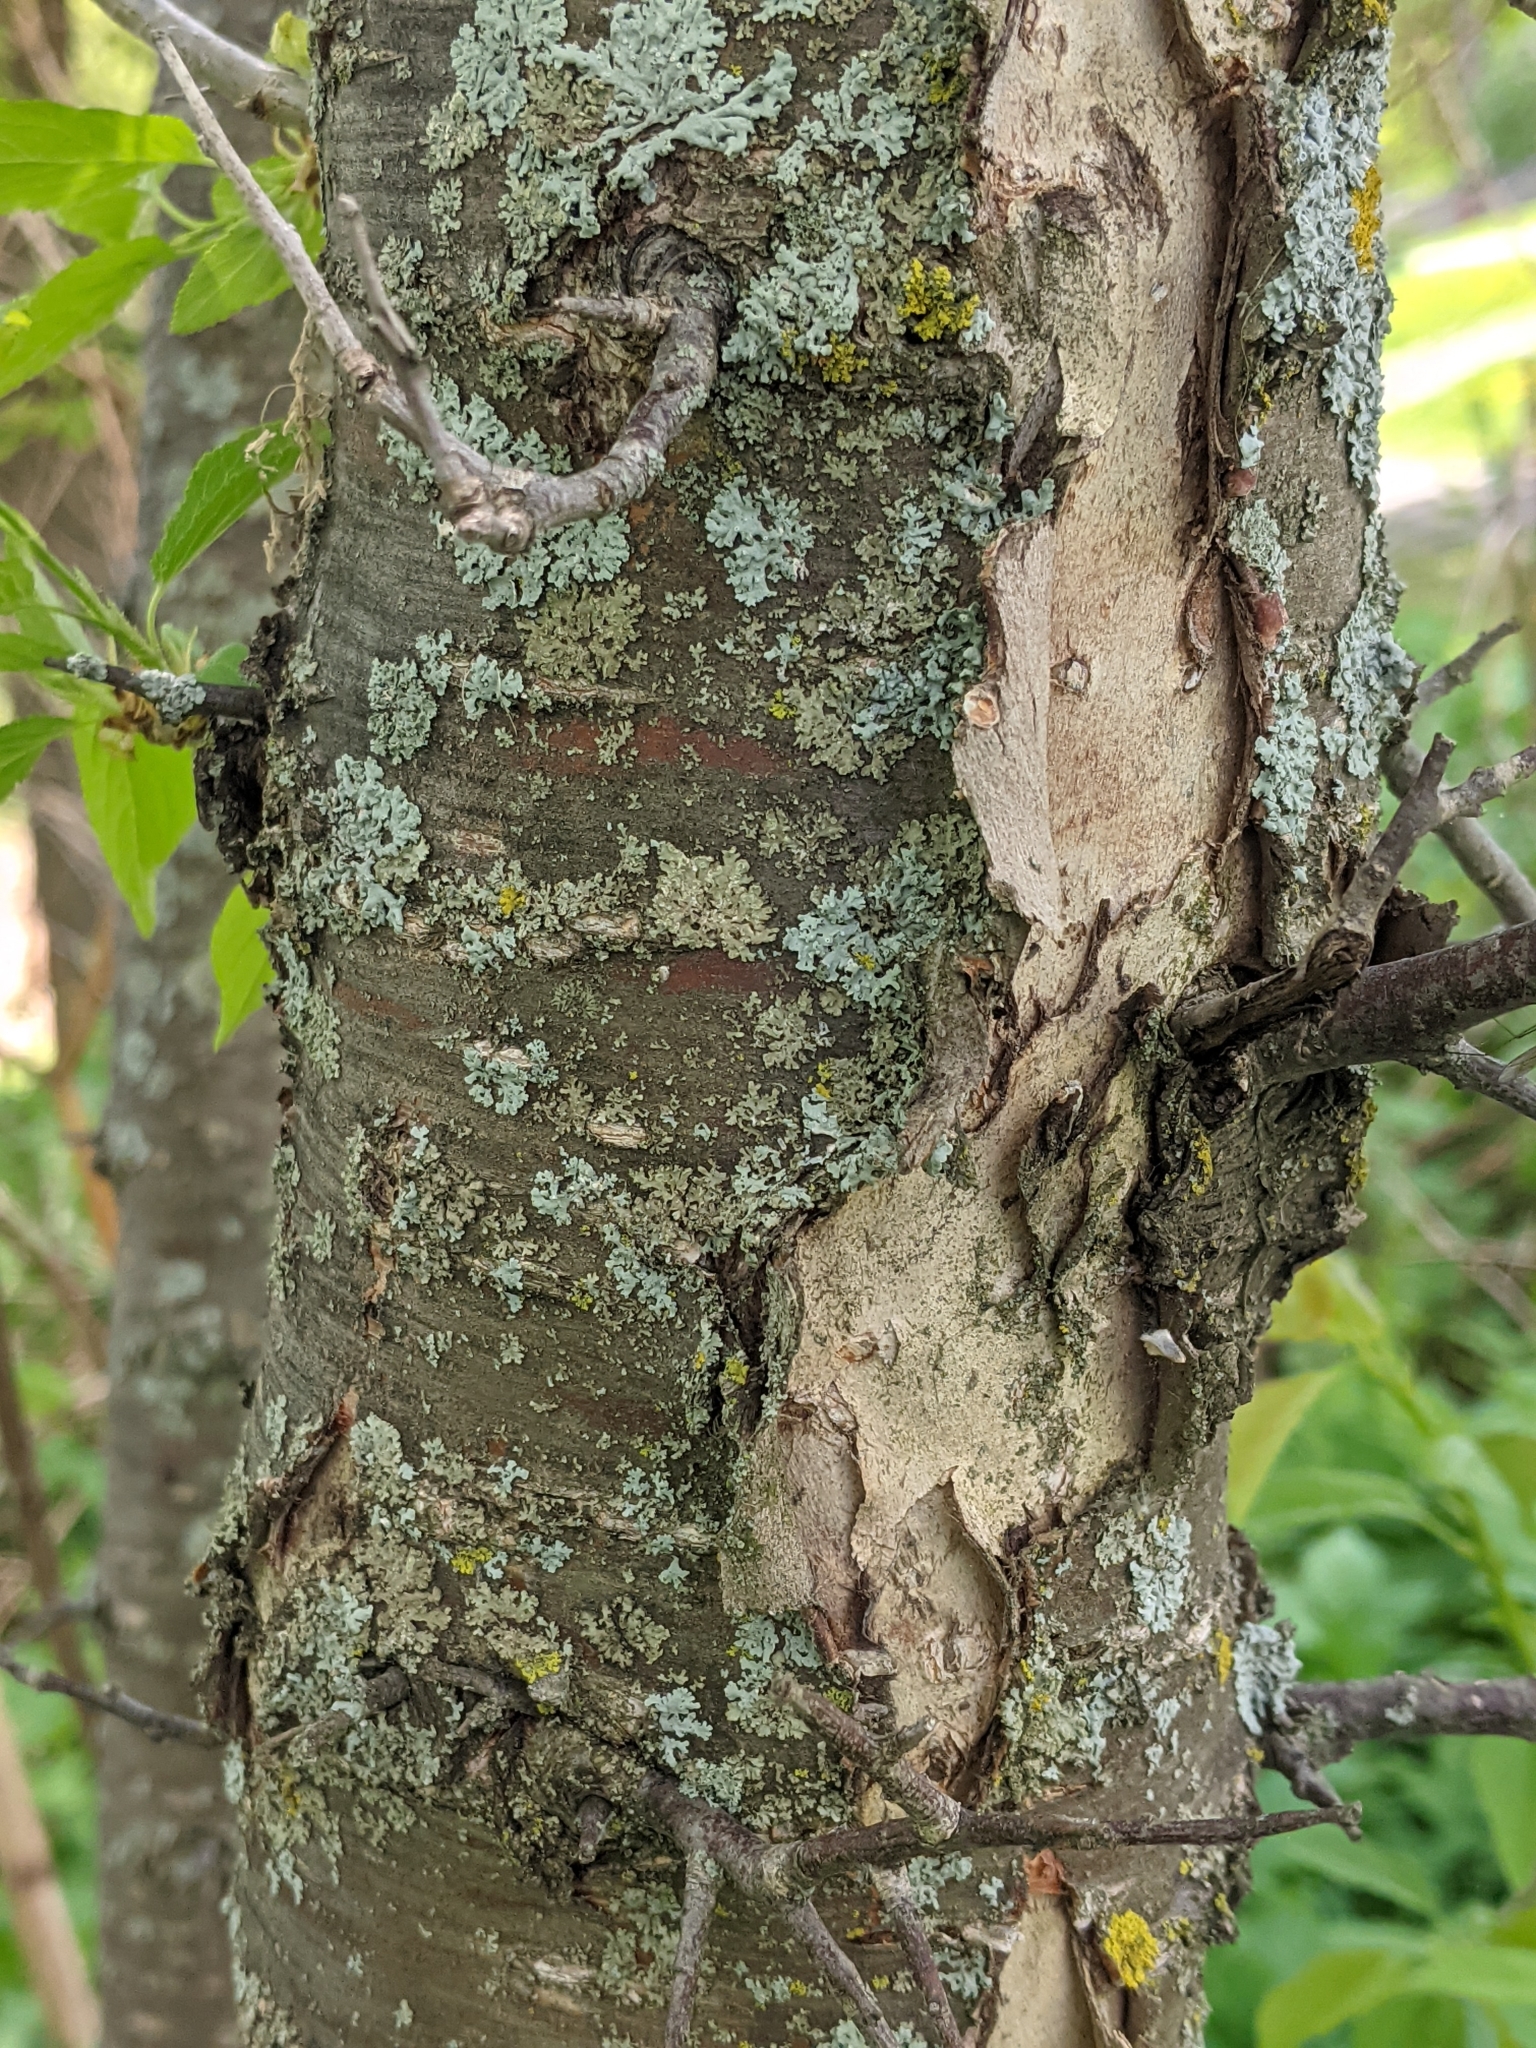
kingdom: Plantae
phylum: Tracheophyta
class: Magnoliopsida
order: Rosales
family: Rosaceae
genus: Prunus
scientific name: Prunus nigra
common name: Black plum
